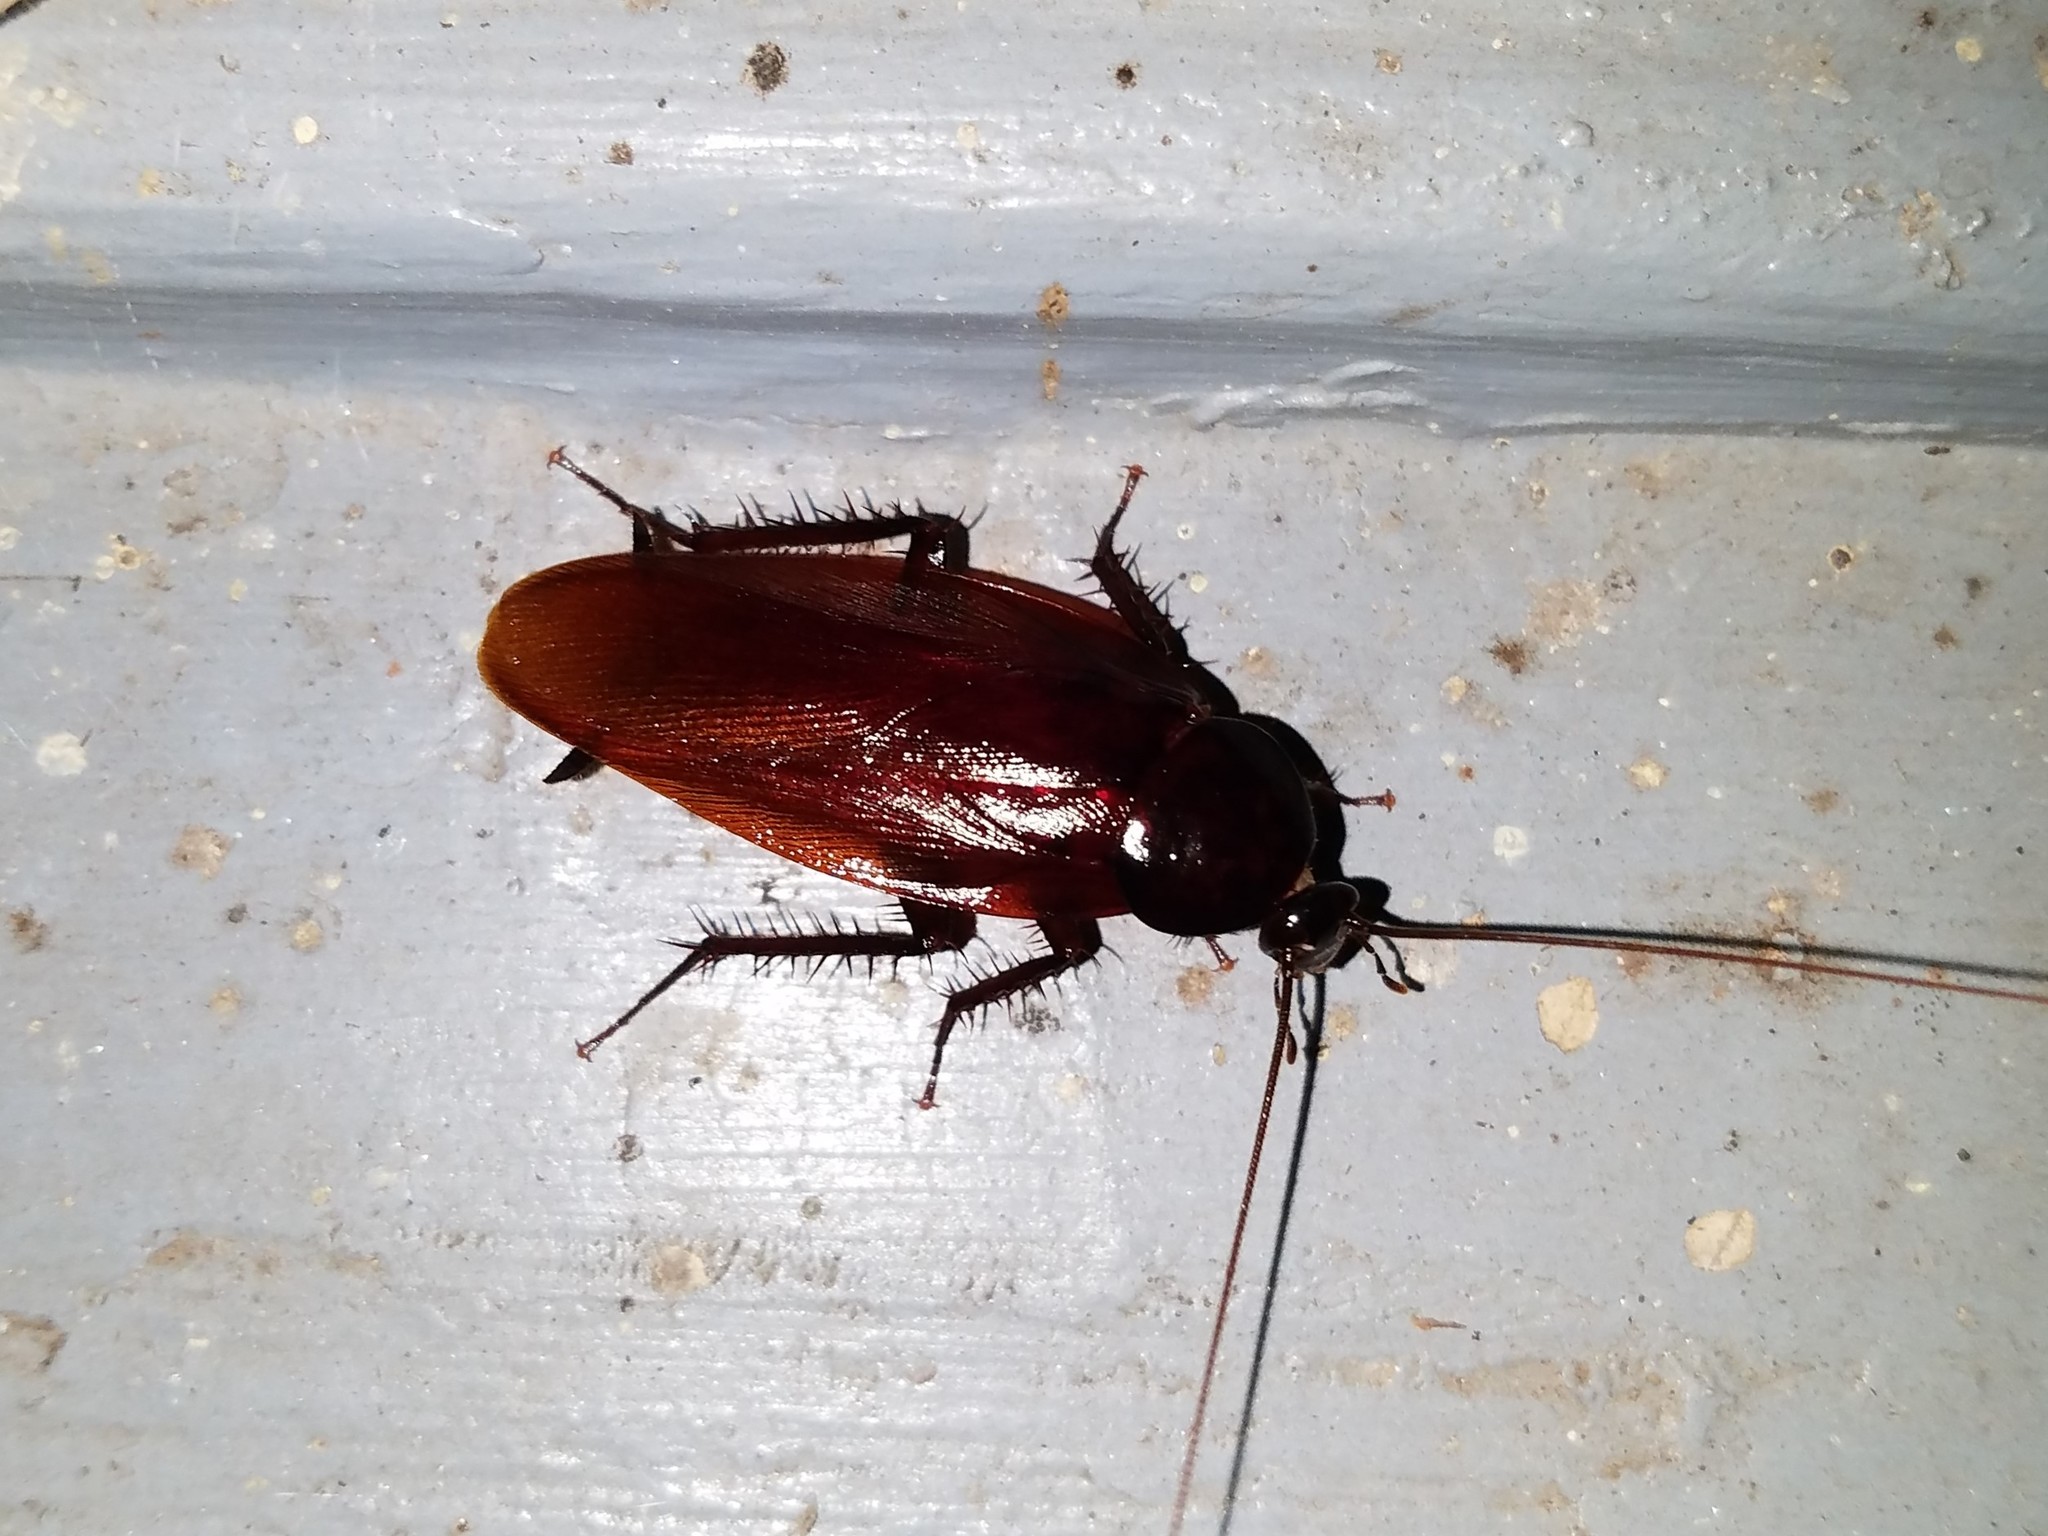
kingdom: Animalia
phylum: Arthropoda
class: Insecta
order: Blattodea
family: Blattidae
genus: Periplaneta
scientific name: Periplaneta fuliginosa
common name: Smokeybrown cockroad
